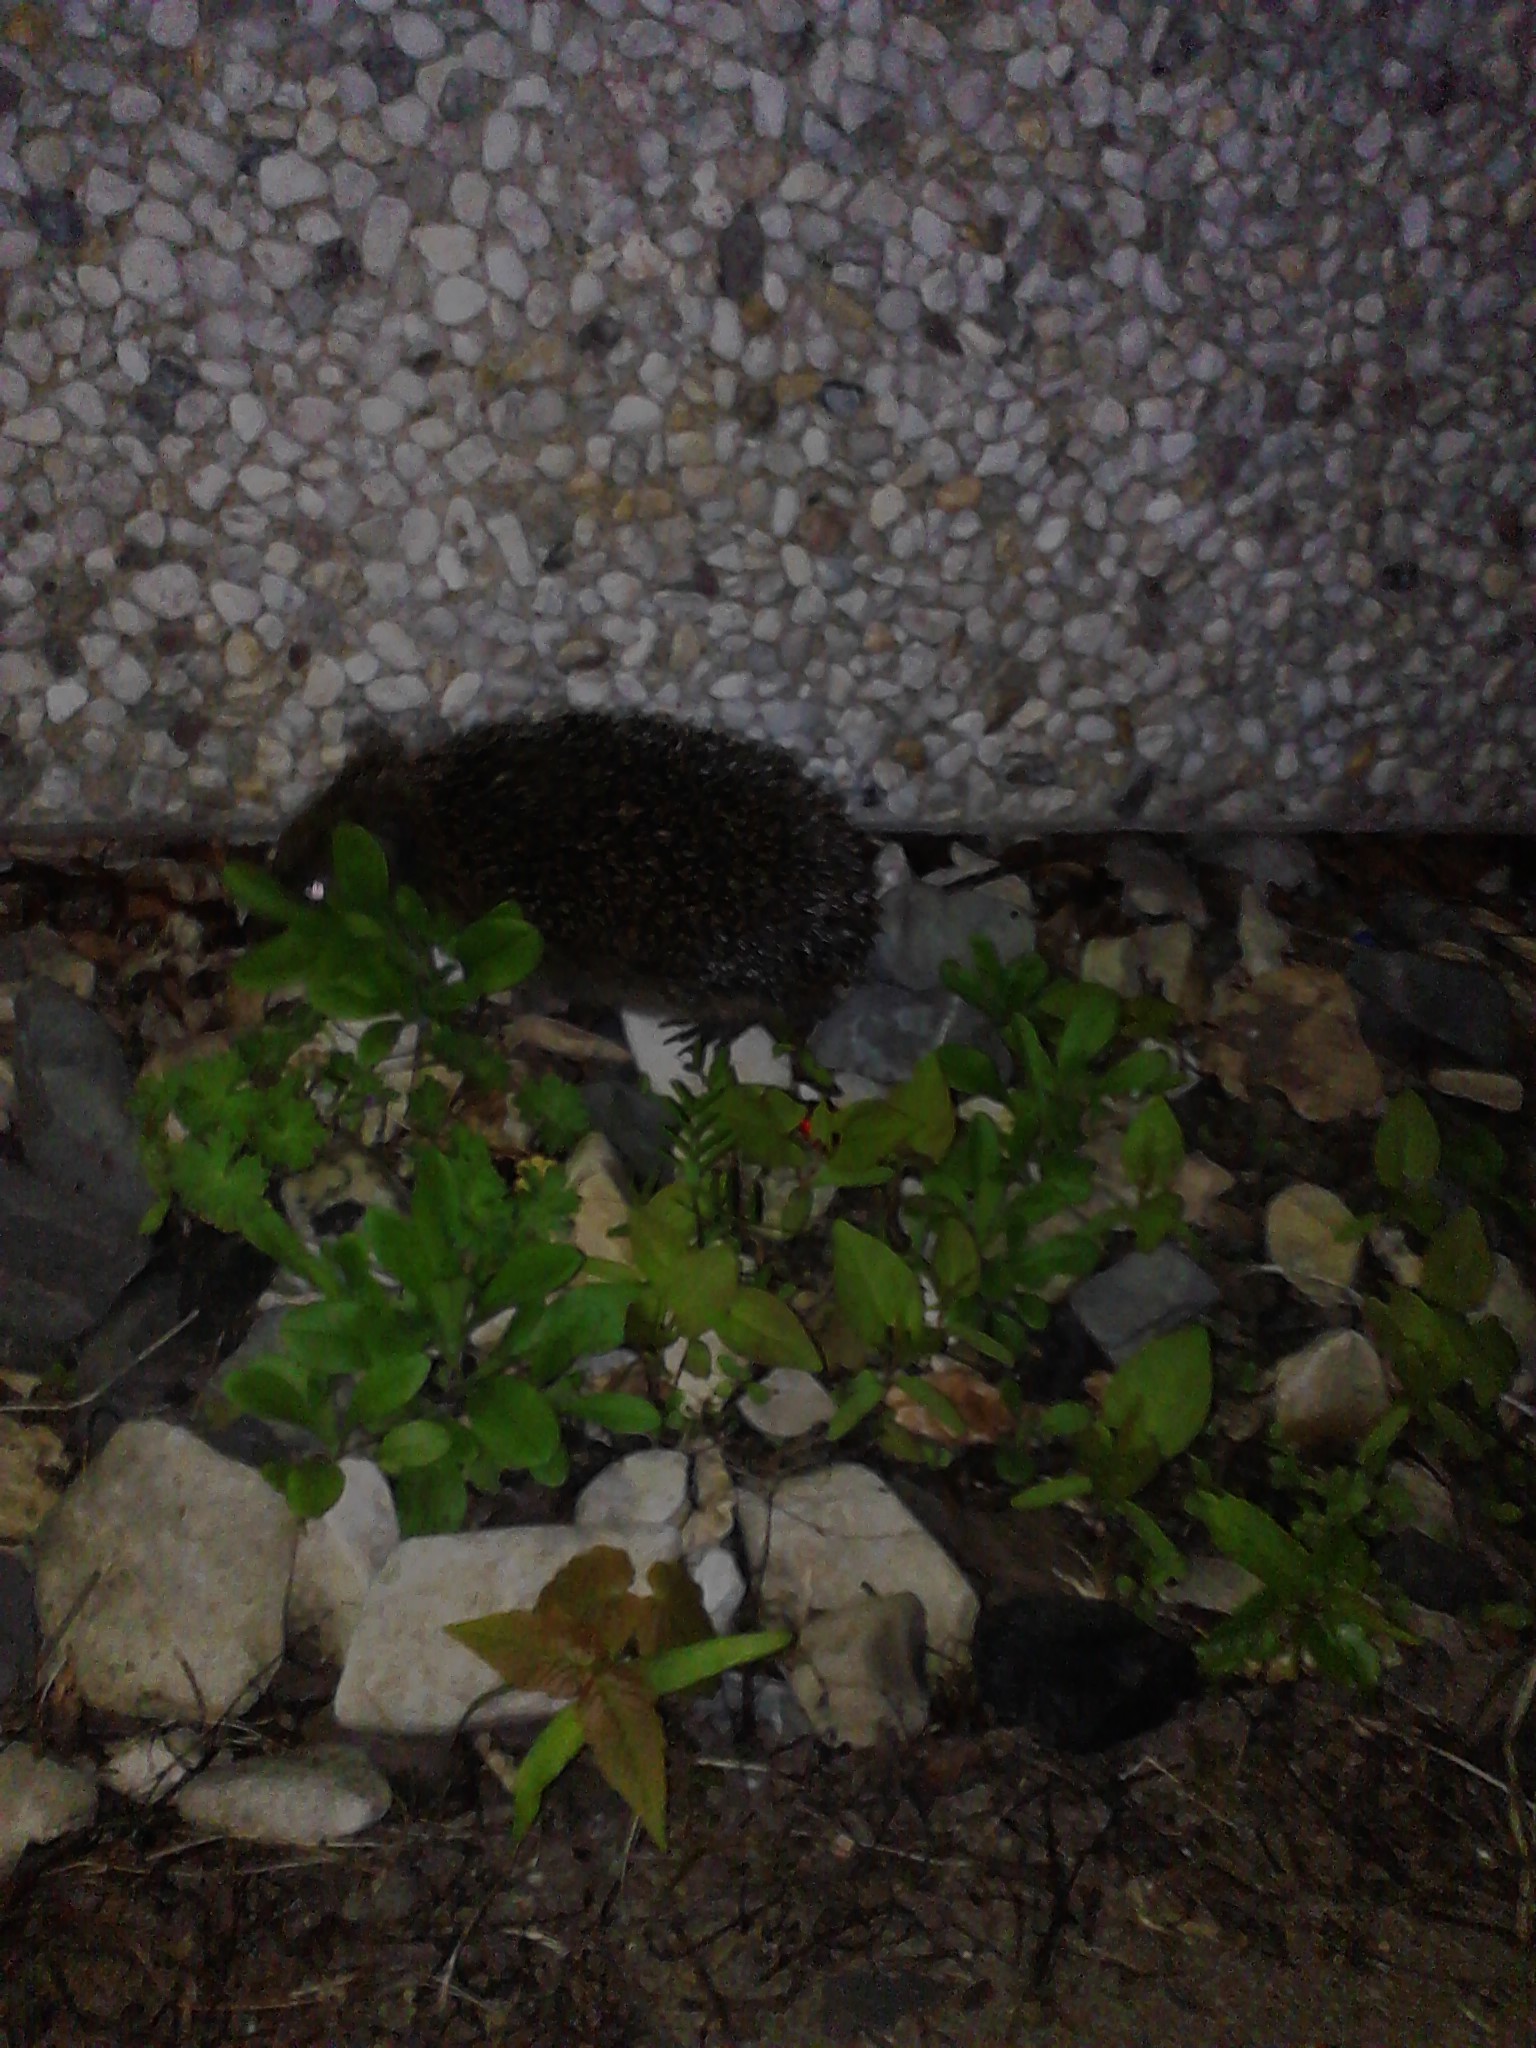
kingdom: Animalia
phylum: Chordata
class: Mammalia
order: Erinaceomorpha
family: Erinaceidae
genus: Erinaceus
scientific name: Erinaceus europaeus
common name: West european hedgehog
